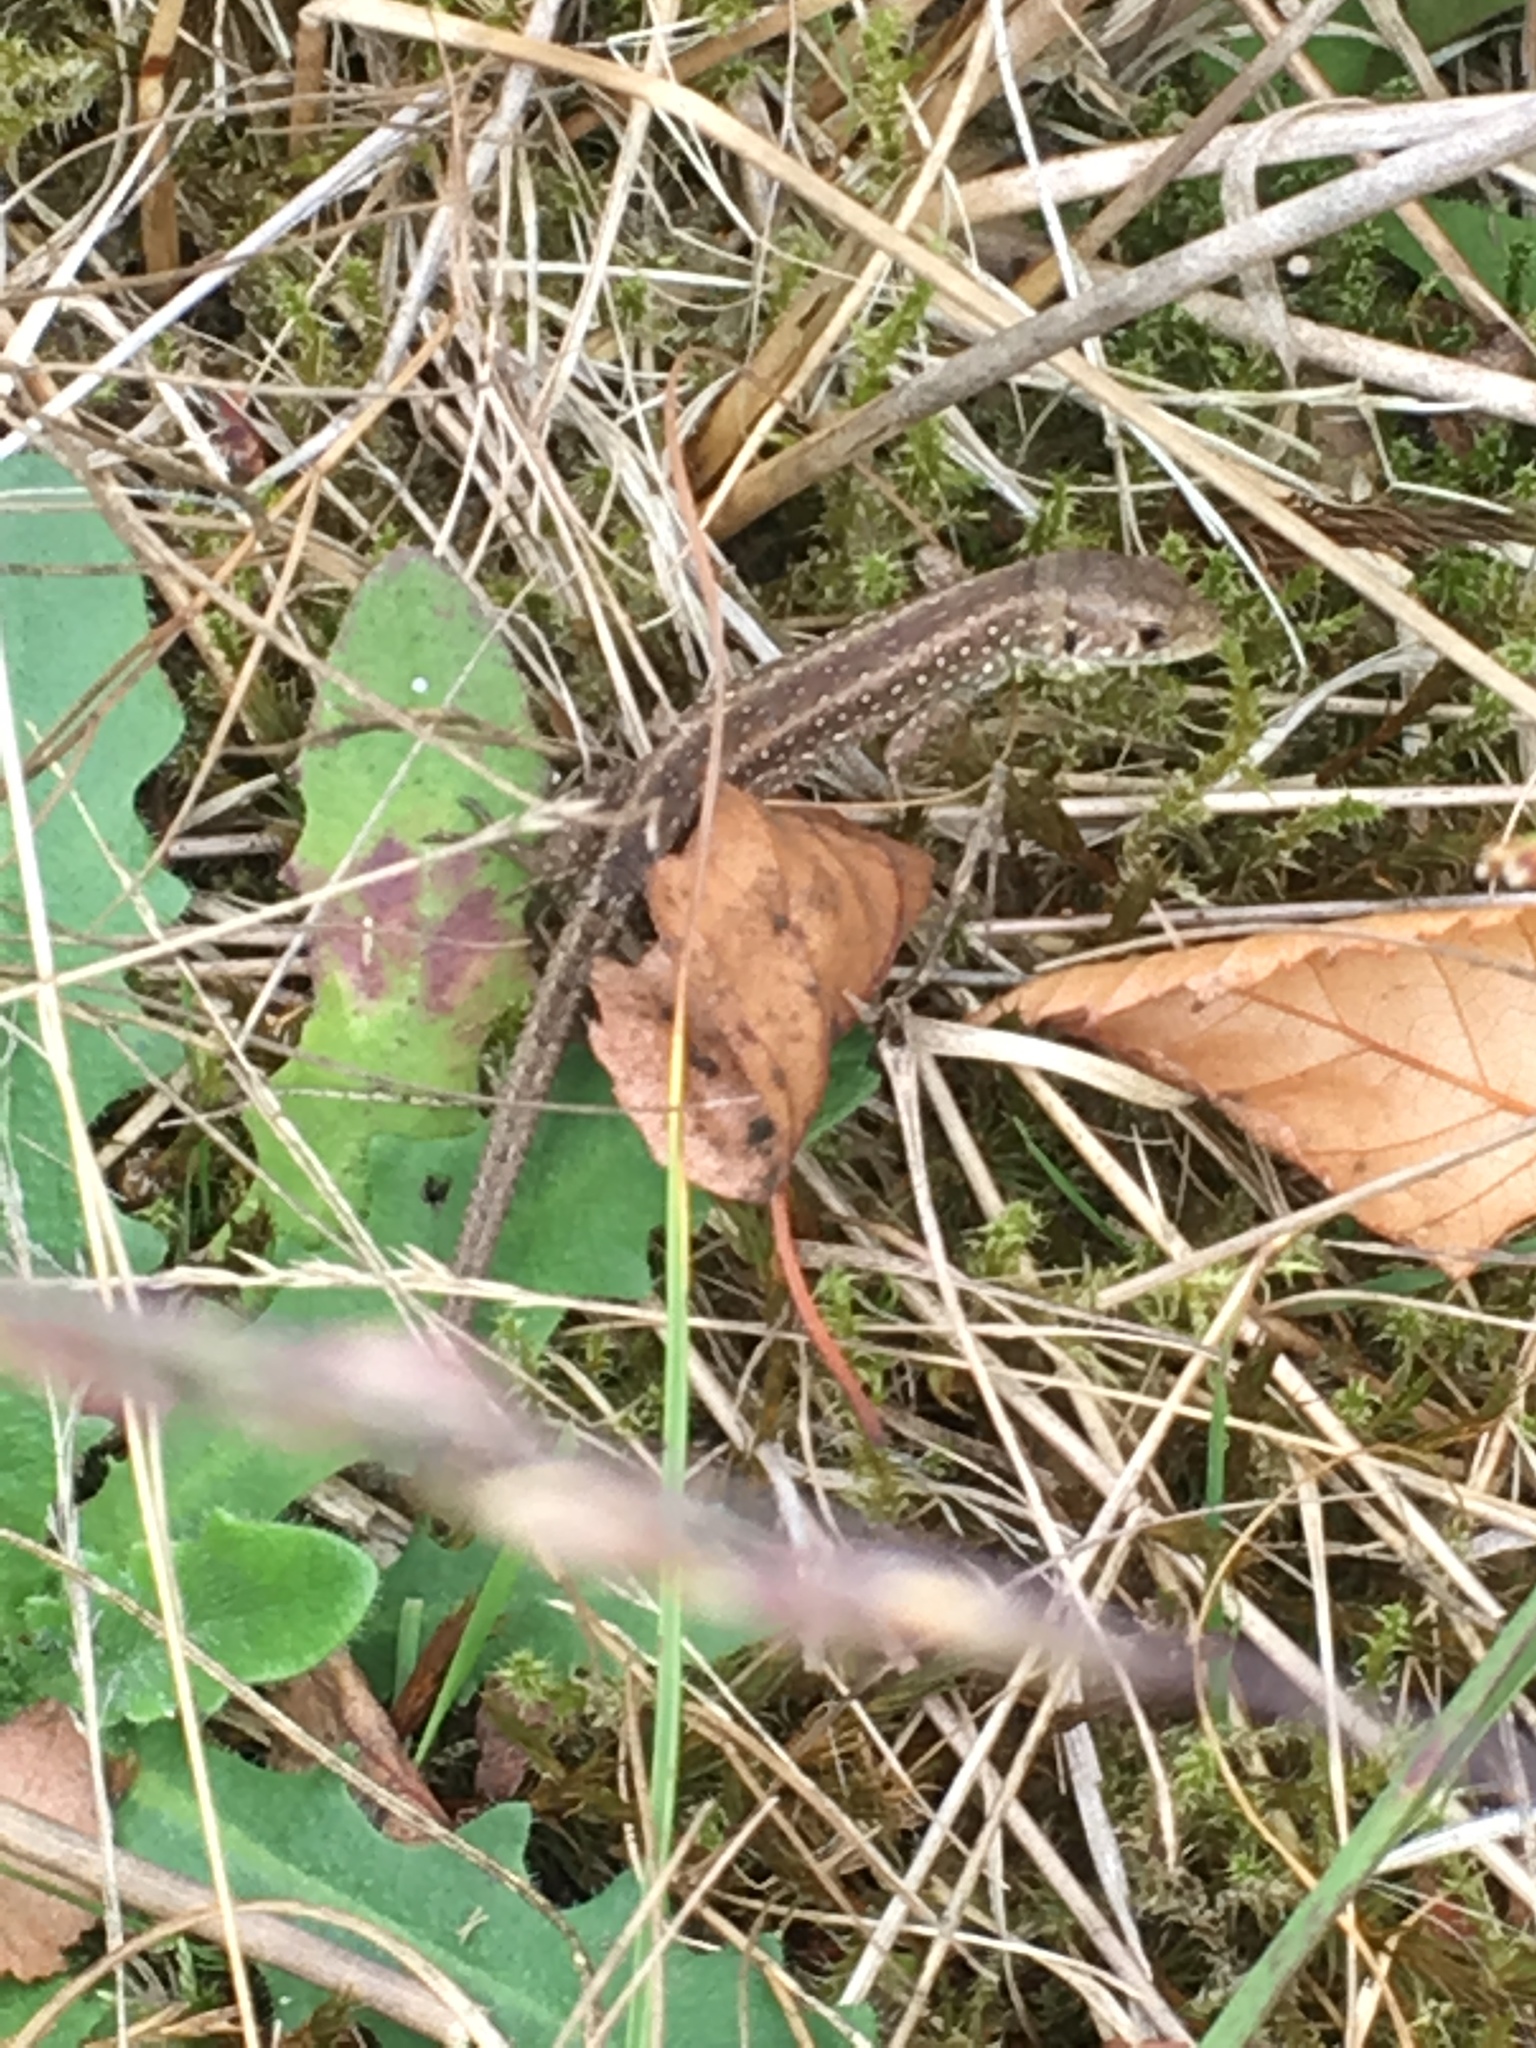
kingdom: Animalia
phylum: Chordata
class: Squamata
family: Lacertidae
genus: Lacerta
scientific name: Lacerta agilis
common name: Sand lizard
